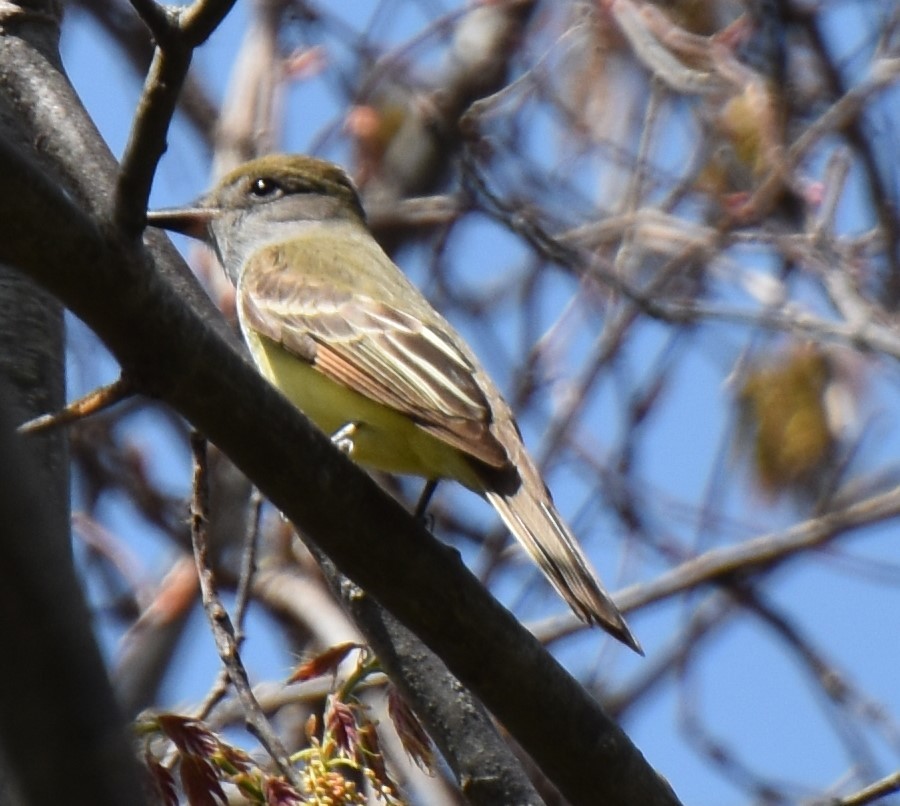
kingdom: Animalia
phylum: Chordata
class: Aves
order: Passeriformes
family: Tyrannidae
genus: Myiarchus
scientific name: Myiarchus crinitus
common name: Great crested flycatcher
